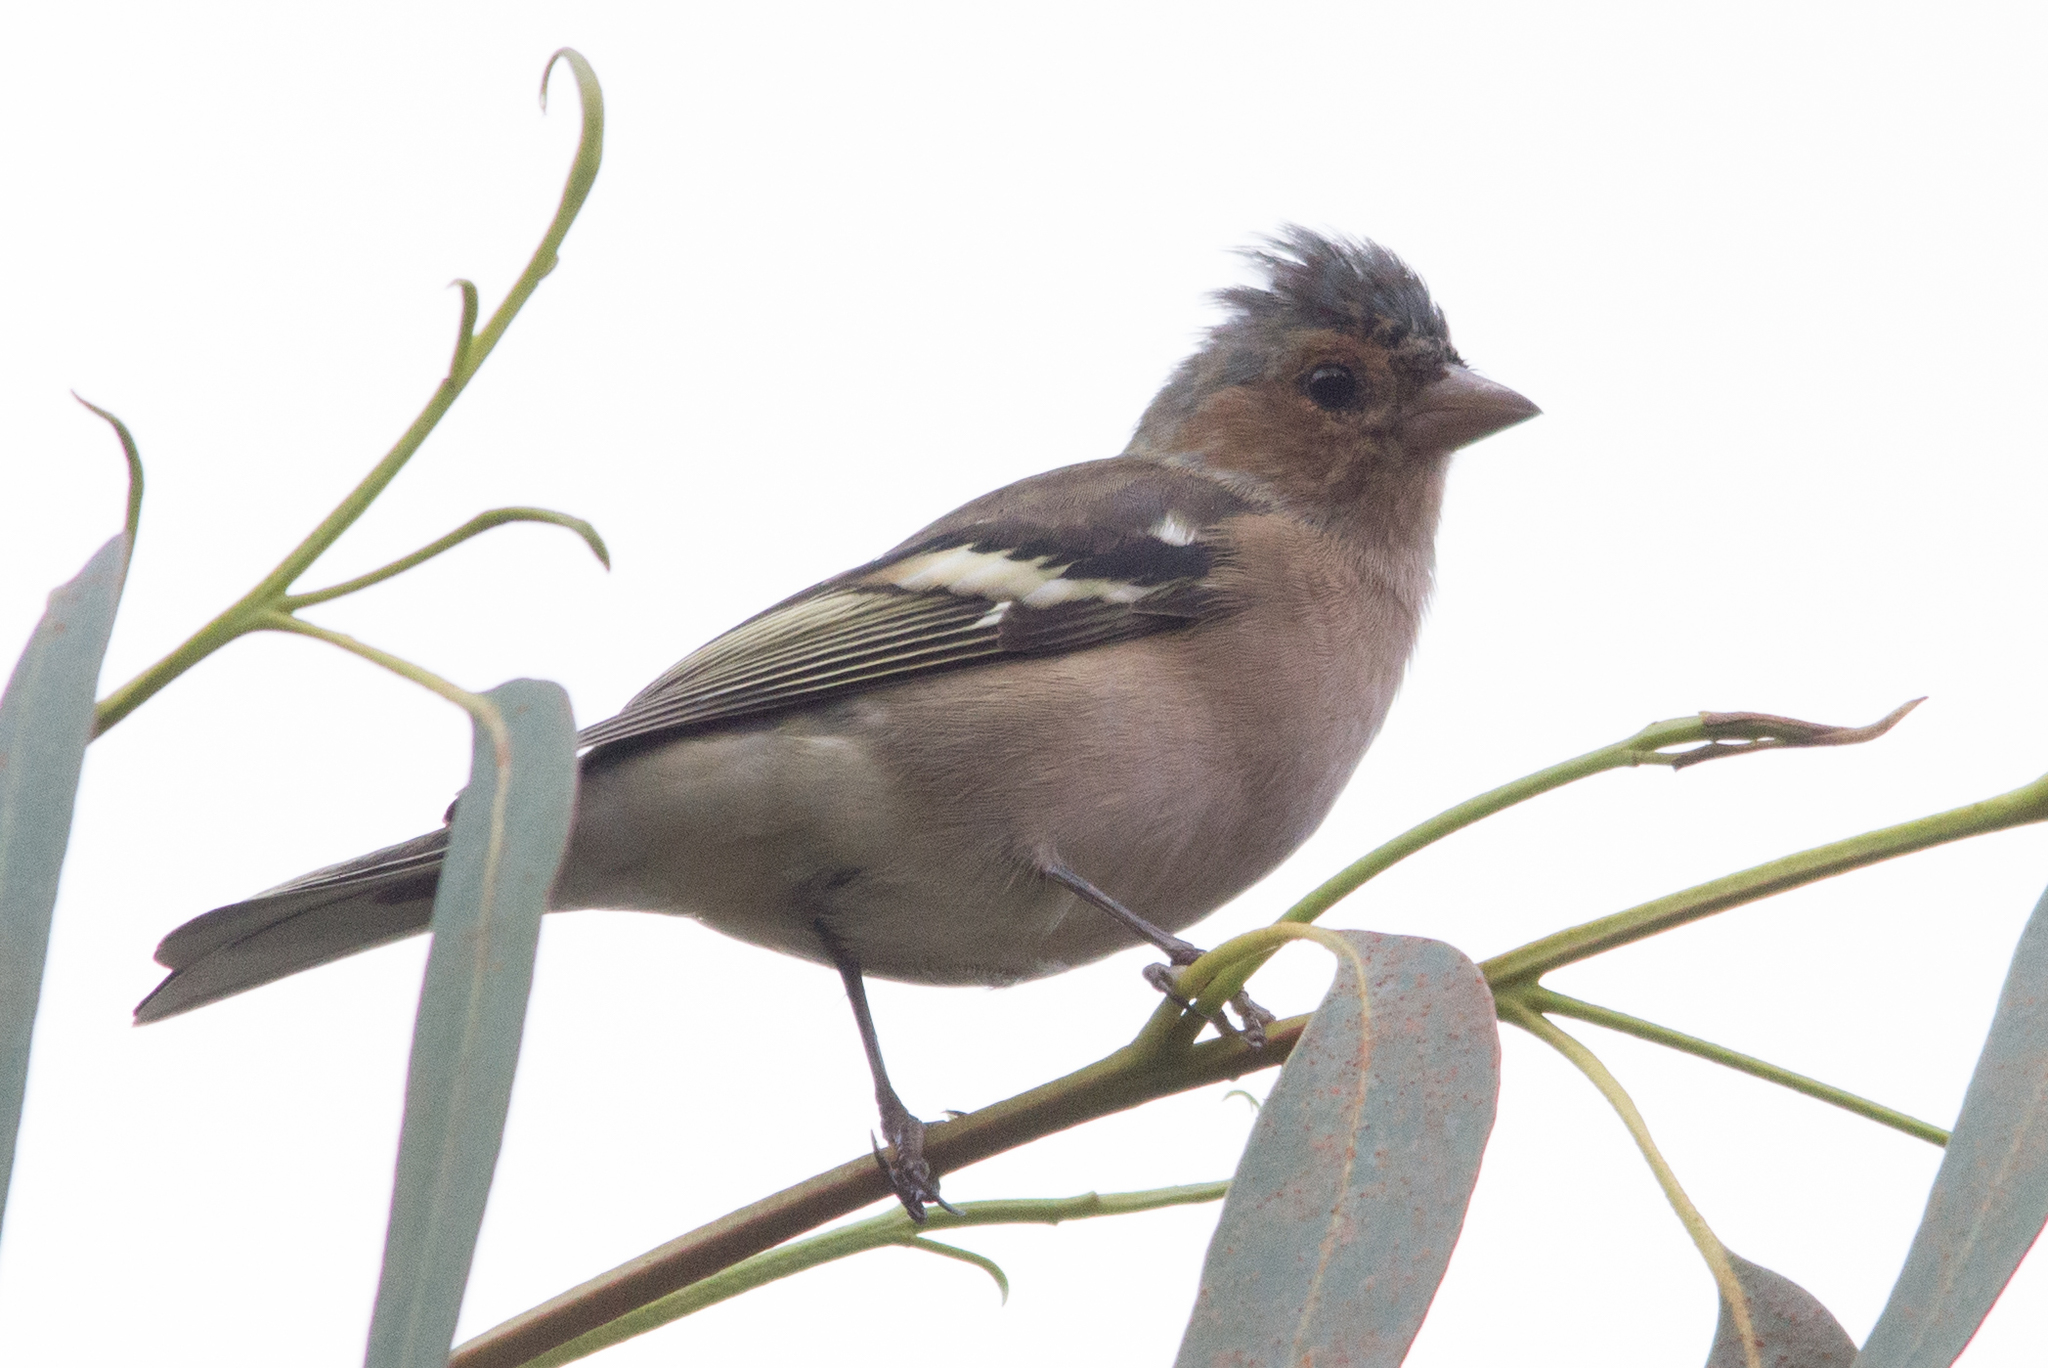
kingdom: Animalia
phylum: Chordata
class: Aves
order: Passeriformes
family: Fringillidae
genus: Fringilla
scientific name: Fringilla coelebs
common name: Common chaffinch
